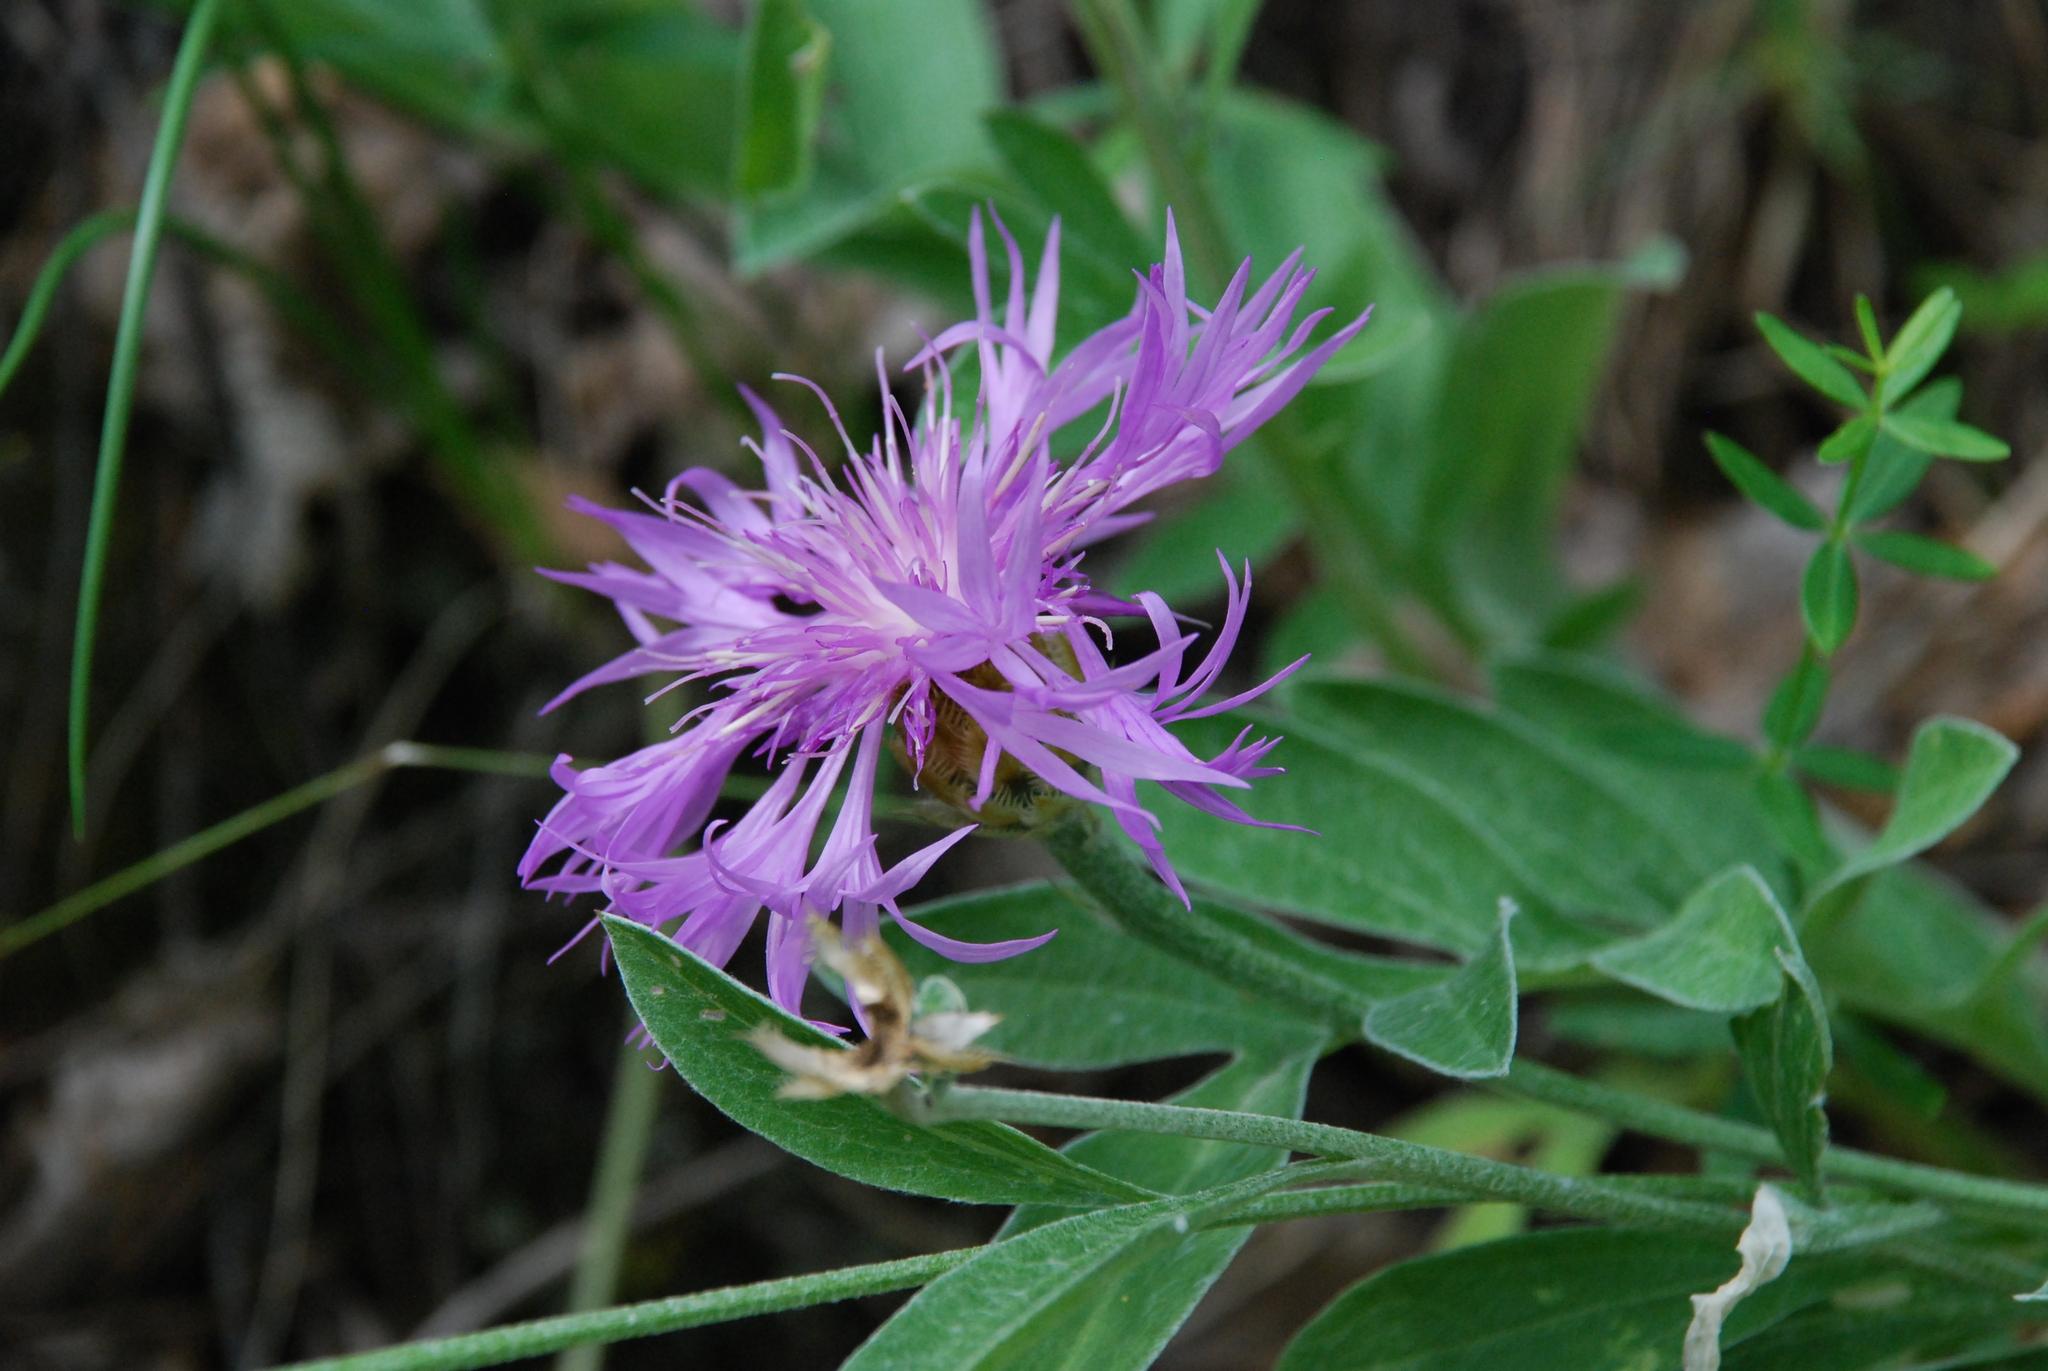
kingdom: Plantae
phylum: Tracheophyta
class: Magnoliopsida
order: Asterales
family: Asteraceae
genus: Psephellus
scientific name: Psephellus sibiricus
